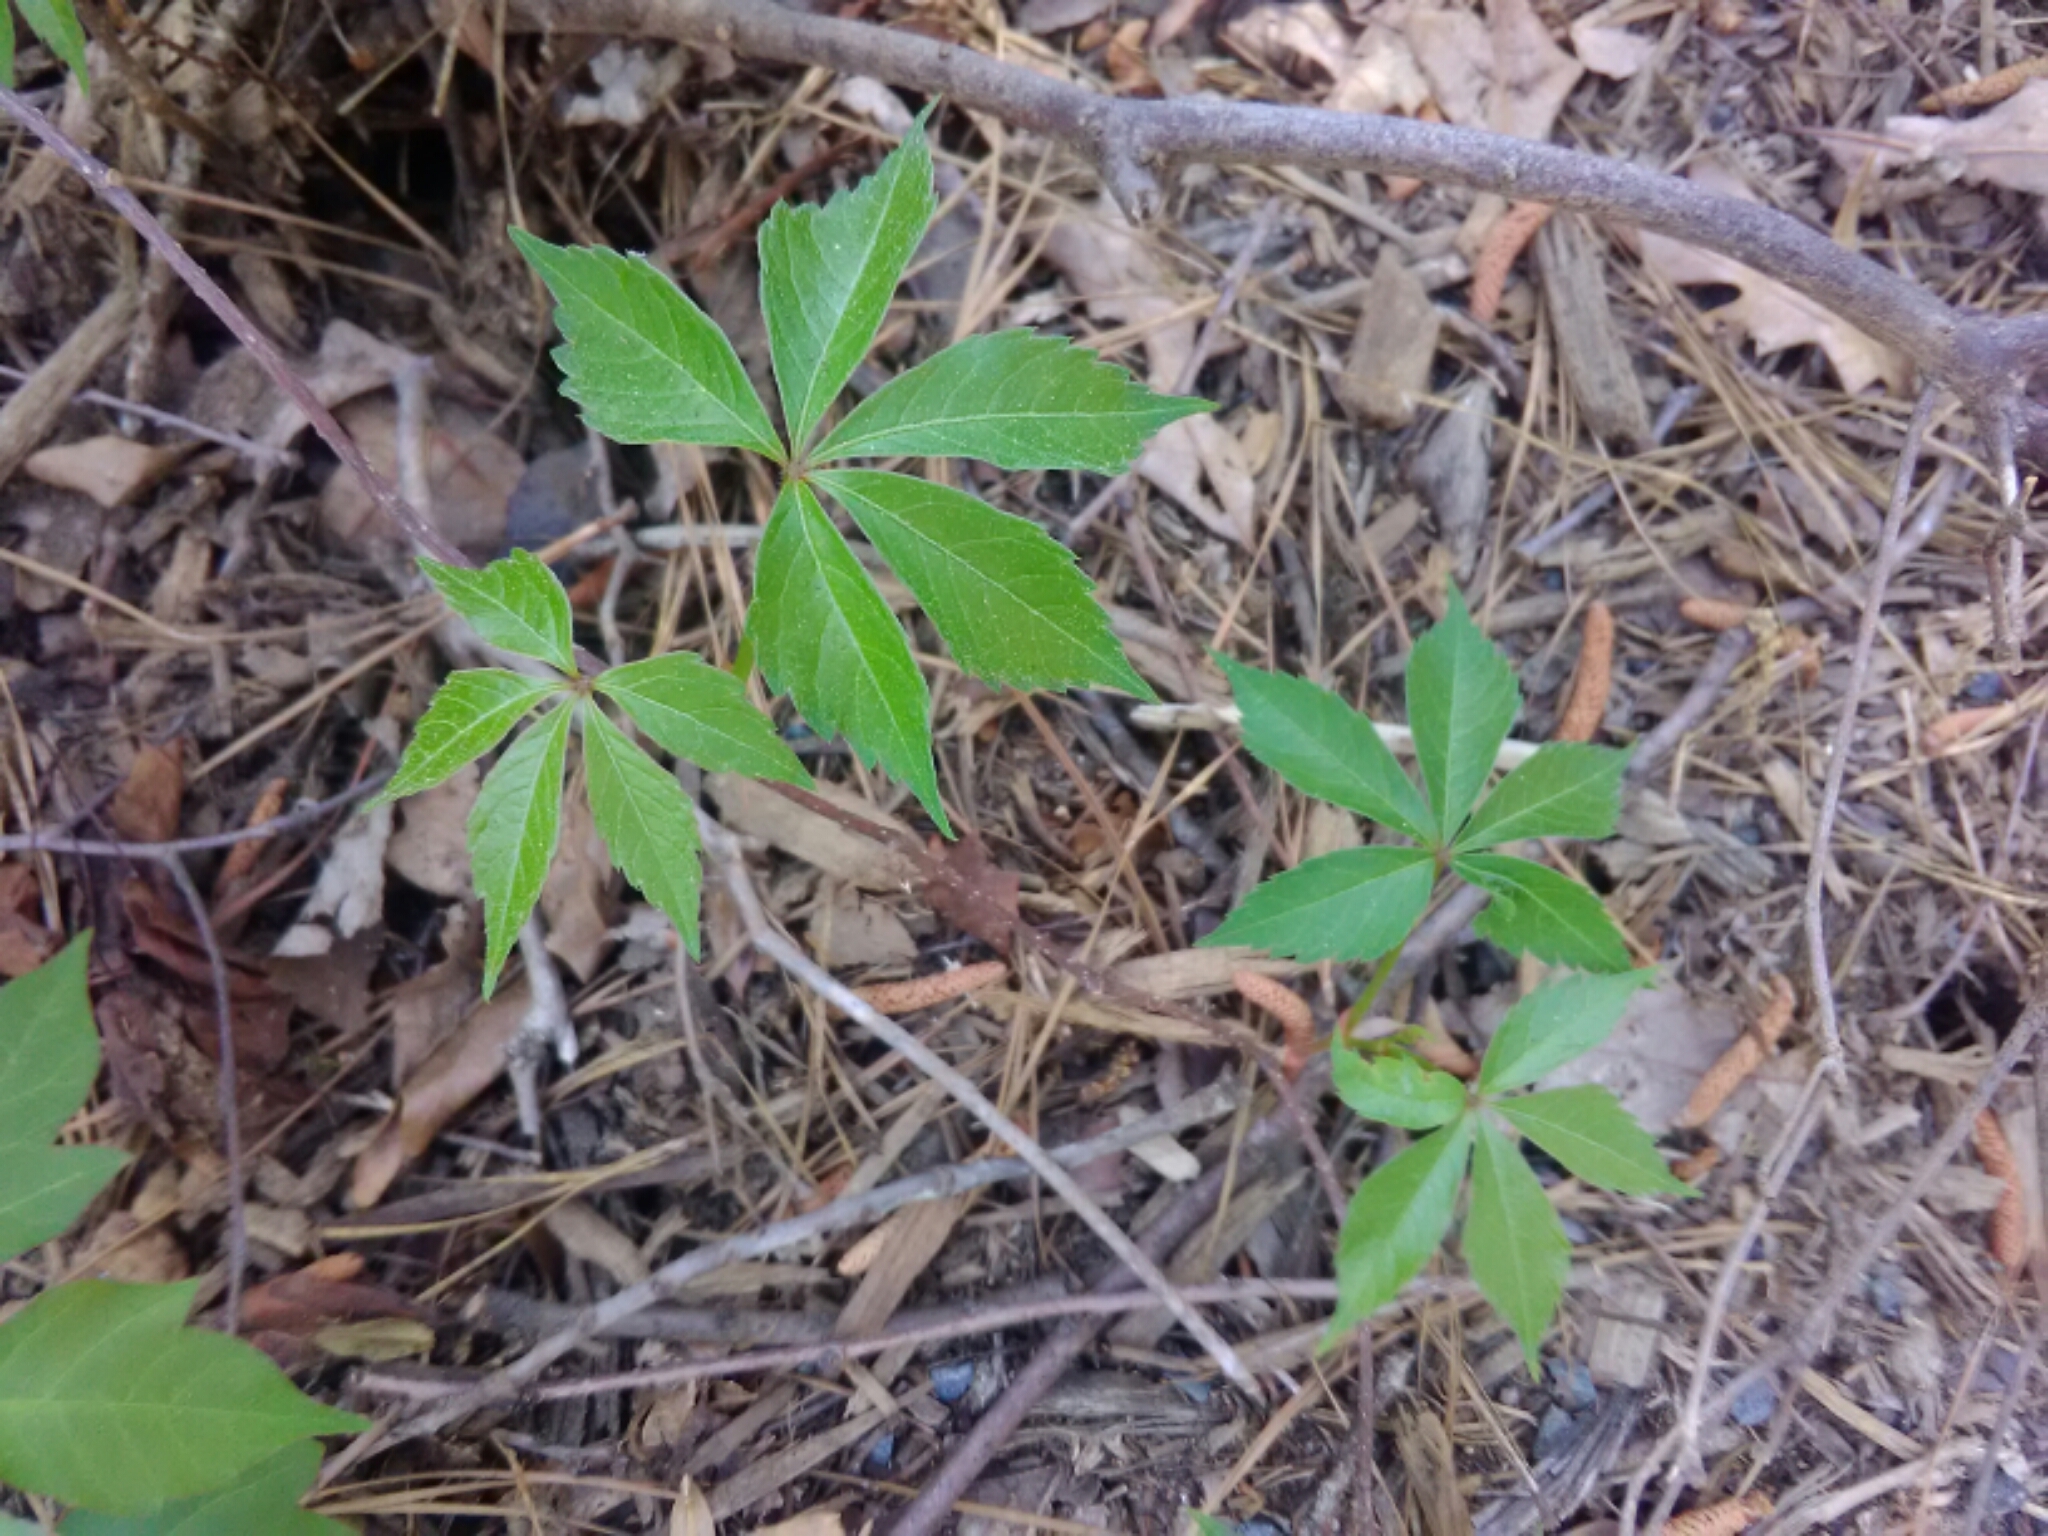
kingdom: Plantae
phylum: Tracheophyta
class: Magnoliopsida
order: Vitales
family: Vitaceae
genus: Parthenocissus
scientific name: Parthenocissus quinquefolia
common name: Virginia-creeper
